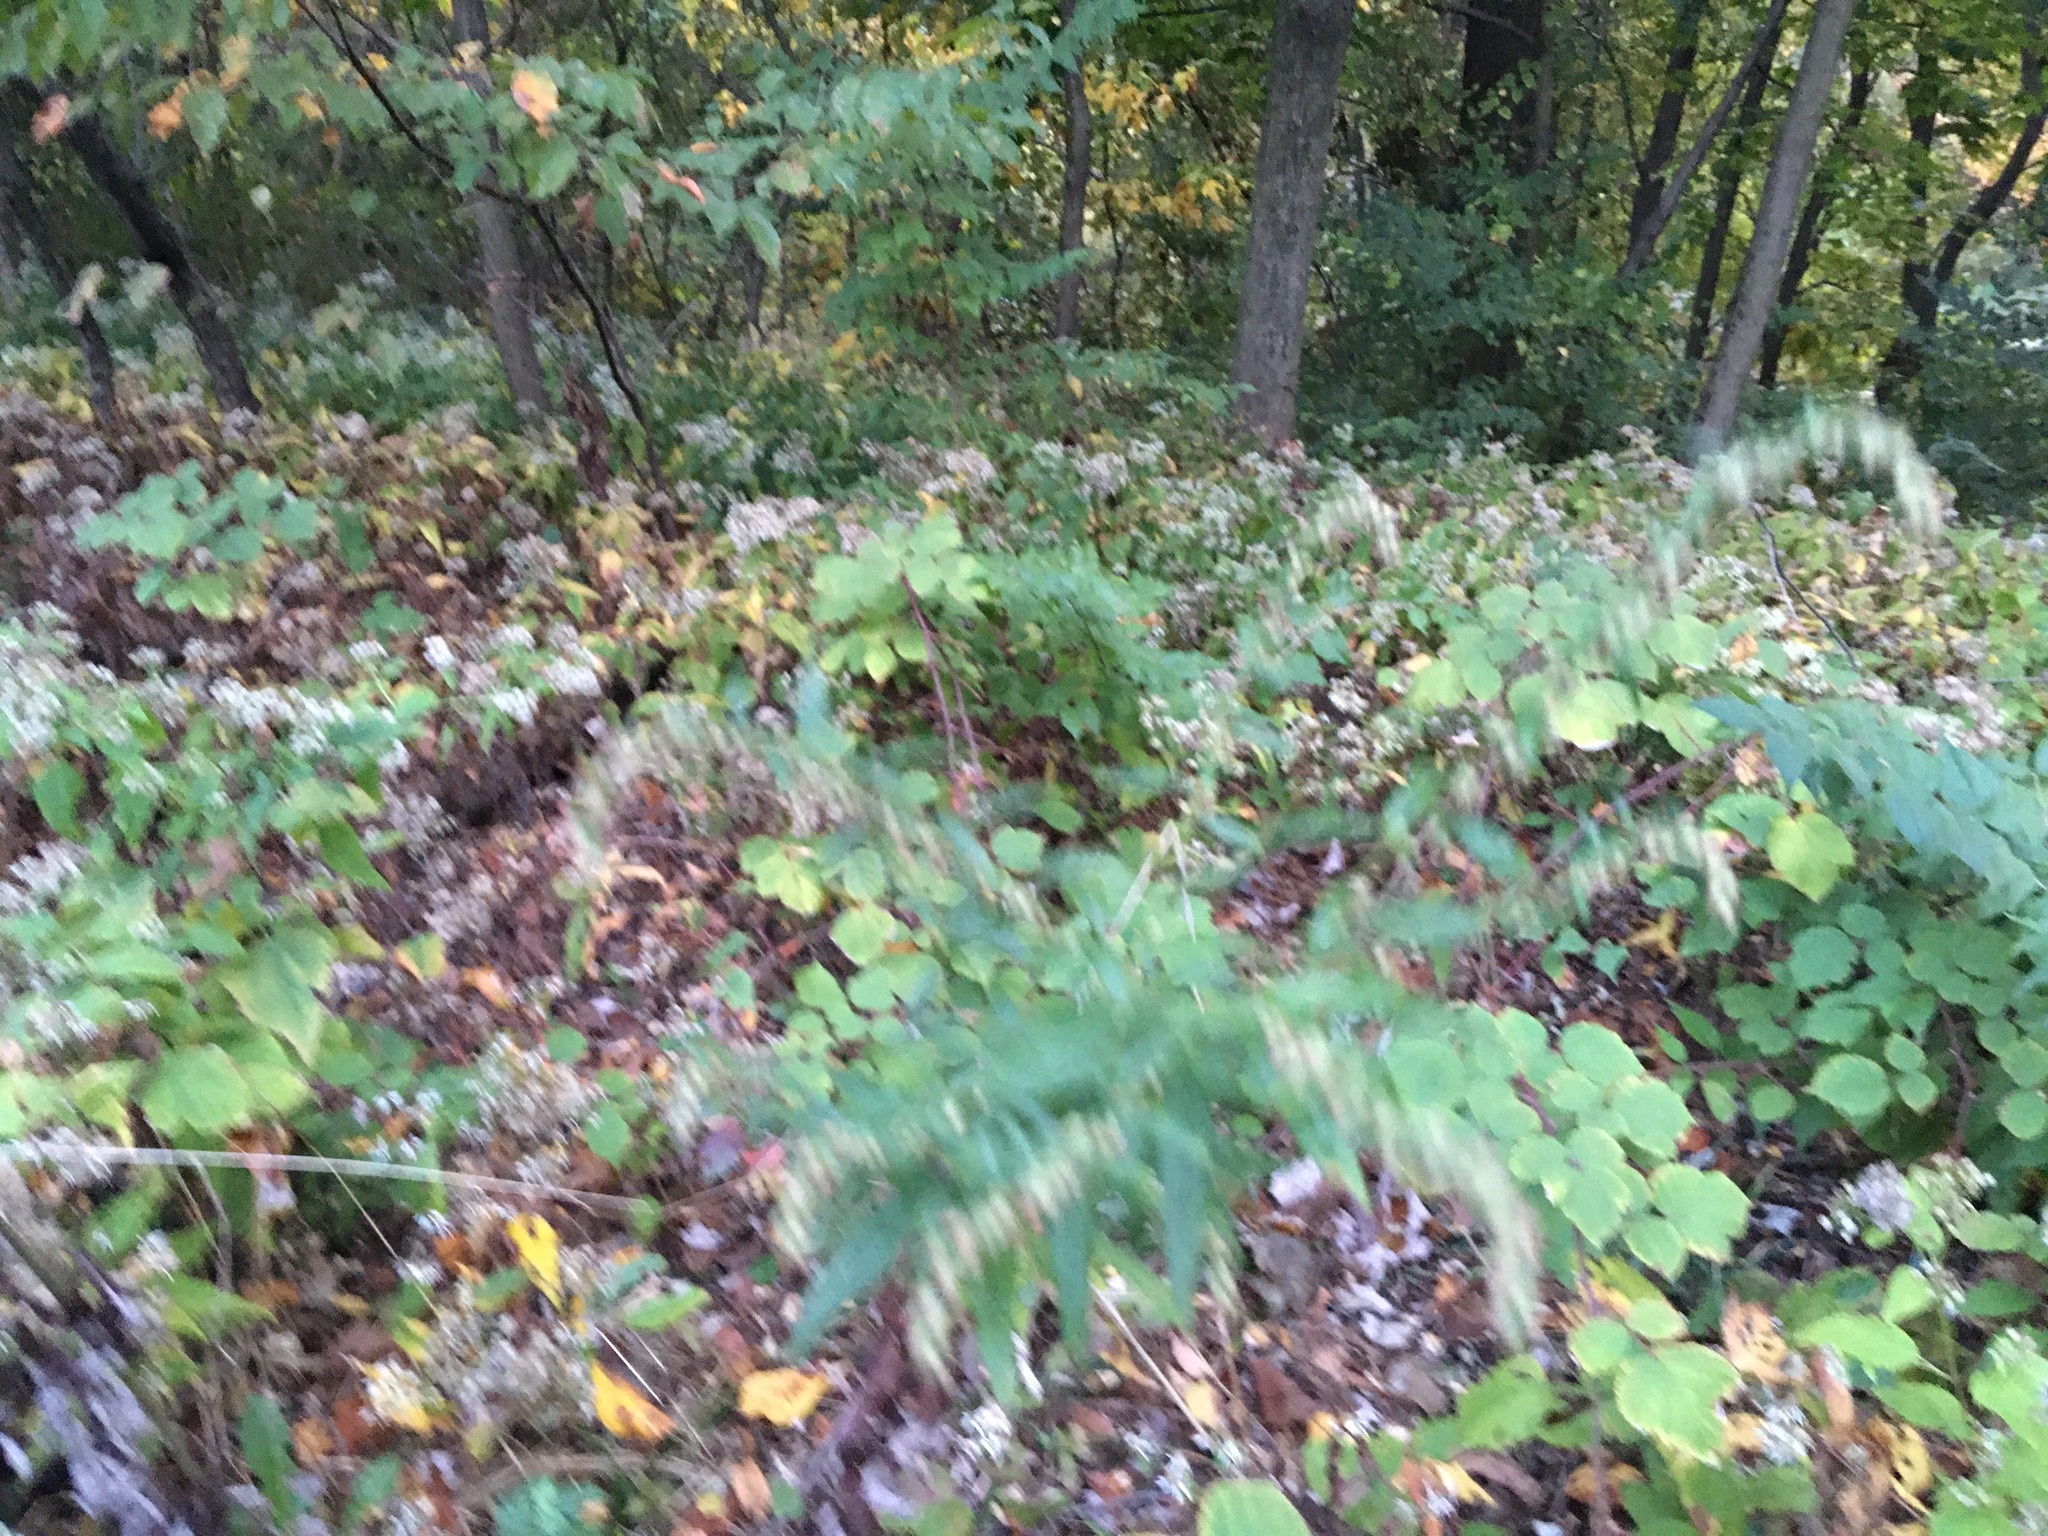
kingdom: Plantae
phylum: Tracheophyta
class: Magnoliopsida
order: Asterales
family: Asteraceae
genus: Artemisia
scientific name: Artemisia vulgaris
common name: Mugwort
